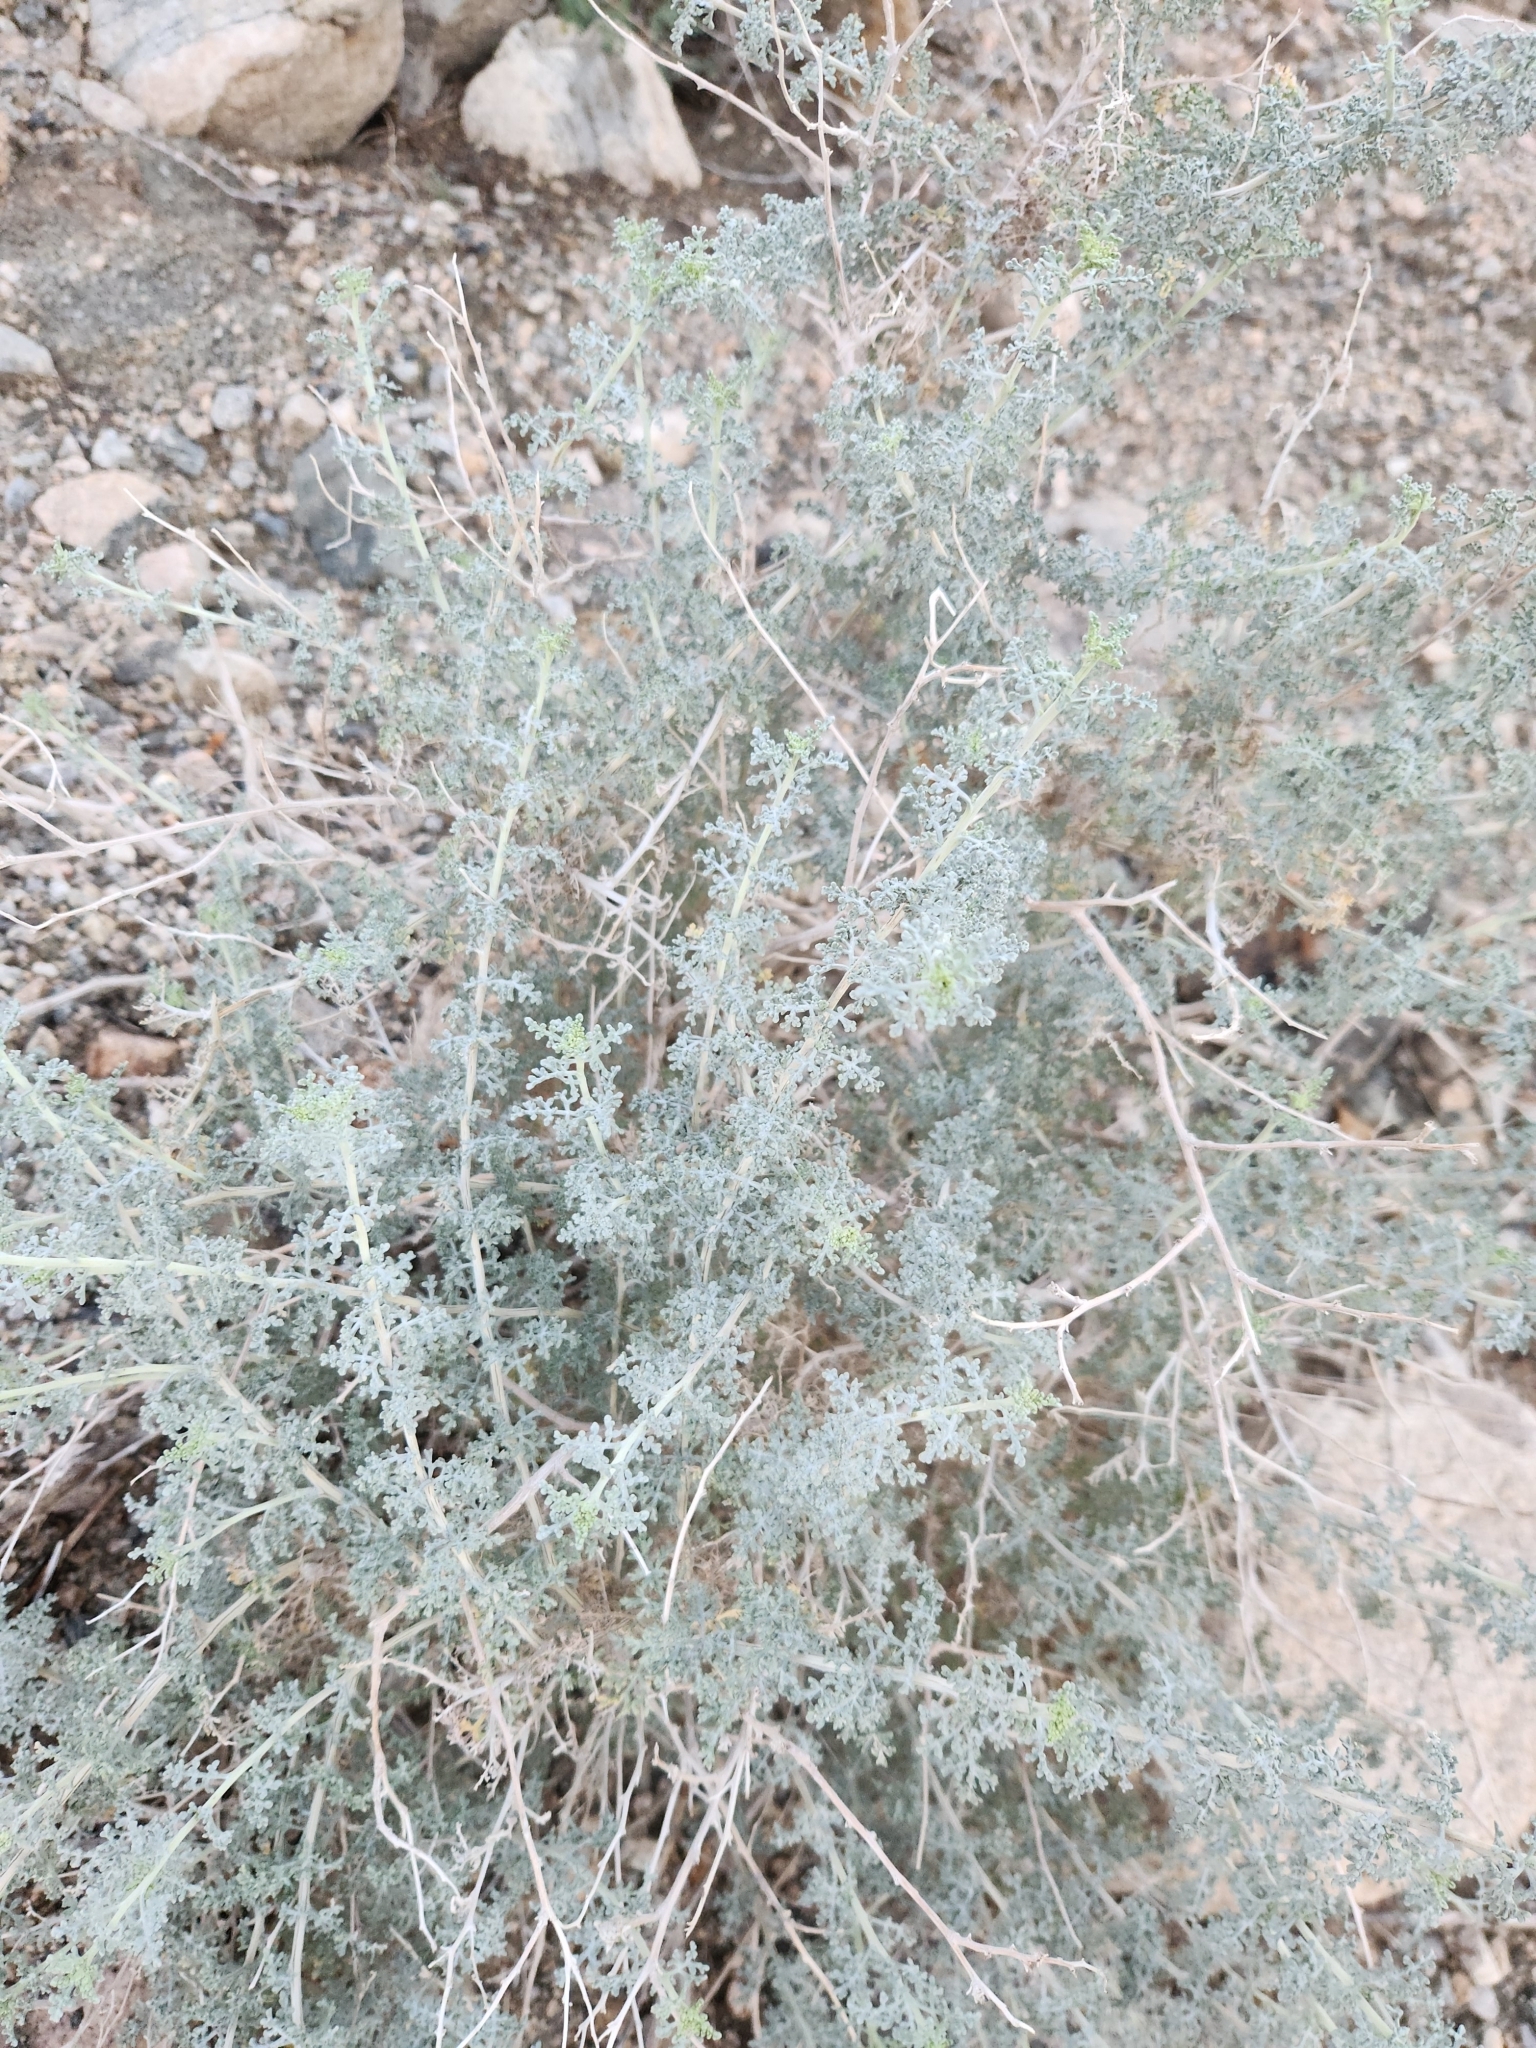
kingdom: Plantae
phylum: Tracheophyta
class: Magnoliopsida
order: Asterales
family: Asteraceae
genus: Ambrosia
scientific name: Ambrosia dumosa
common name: Bur-sage
